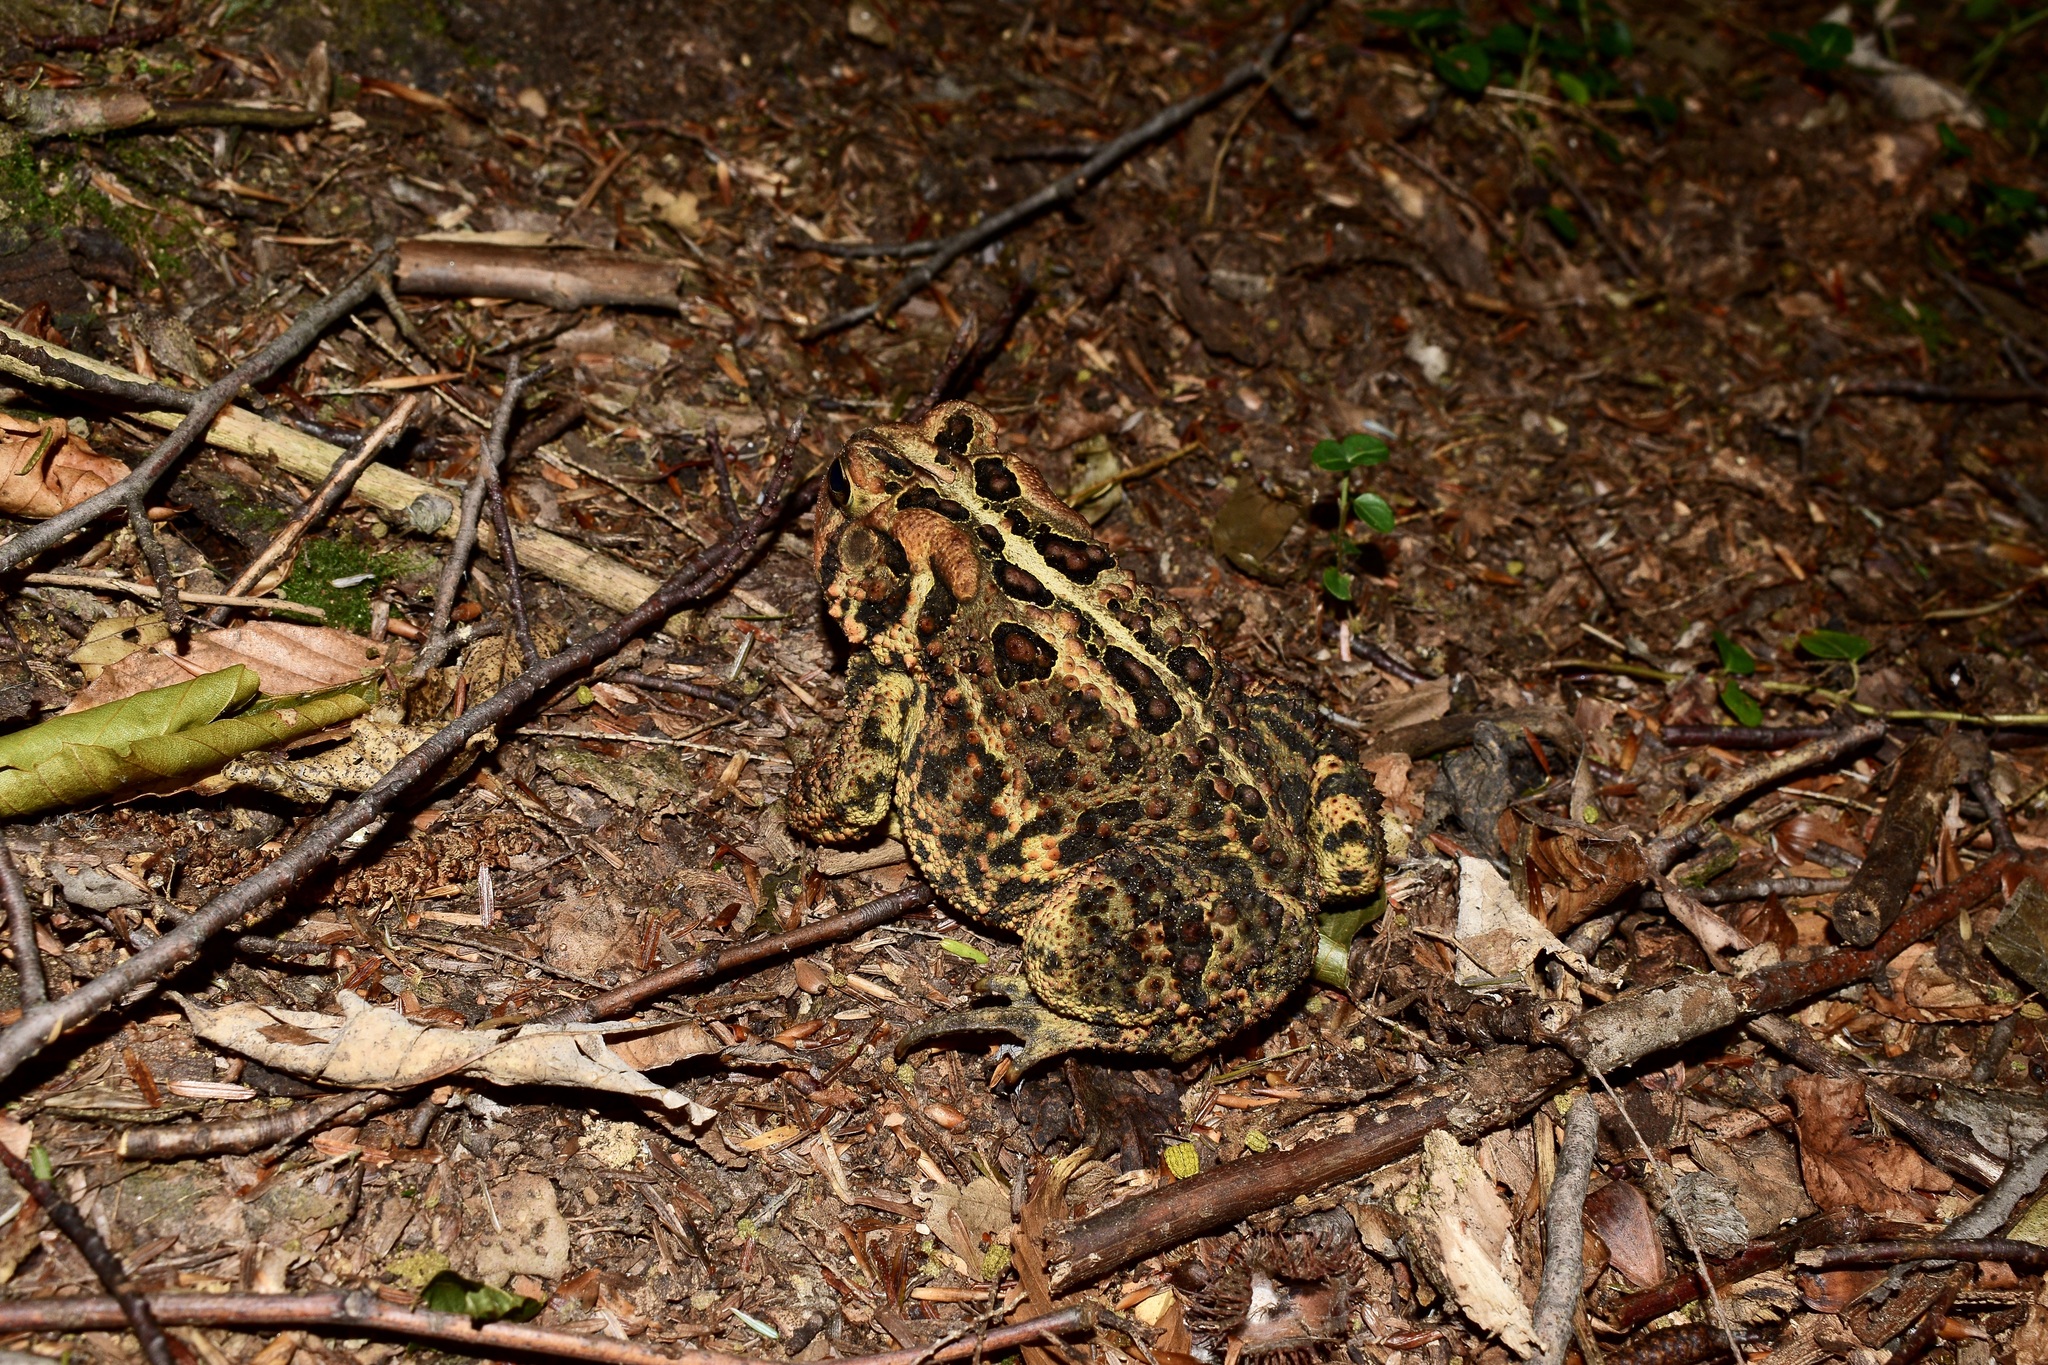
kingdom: Animalia
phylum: Chordata
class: Amphibia
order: Anura
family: Bufonidae
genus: Anaxyrus
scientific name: Anaxyrus americanus
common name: American toad
